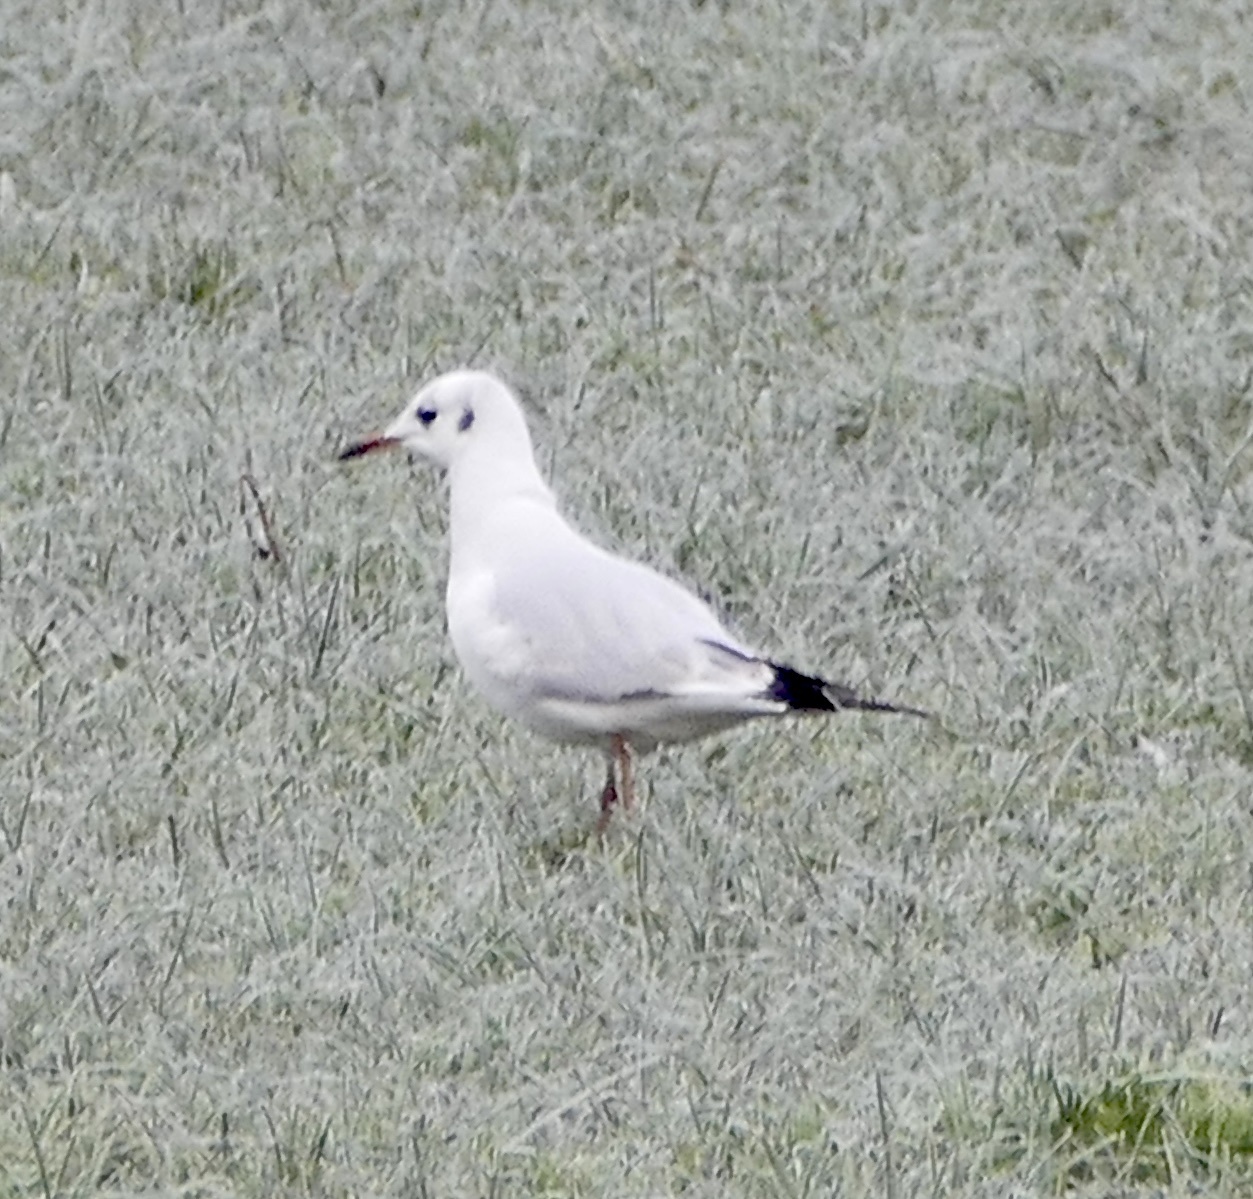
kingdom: Animalia
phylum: Chordata
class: Aves
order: Charadriiformes
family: Laridae
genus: Chroicocephalus
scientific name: Chroicocephalus ridibundus
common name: Black-headed gull
